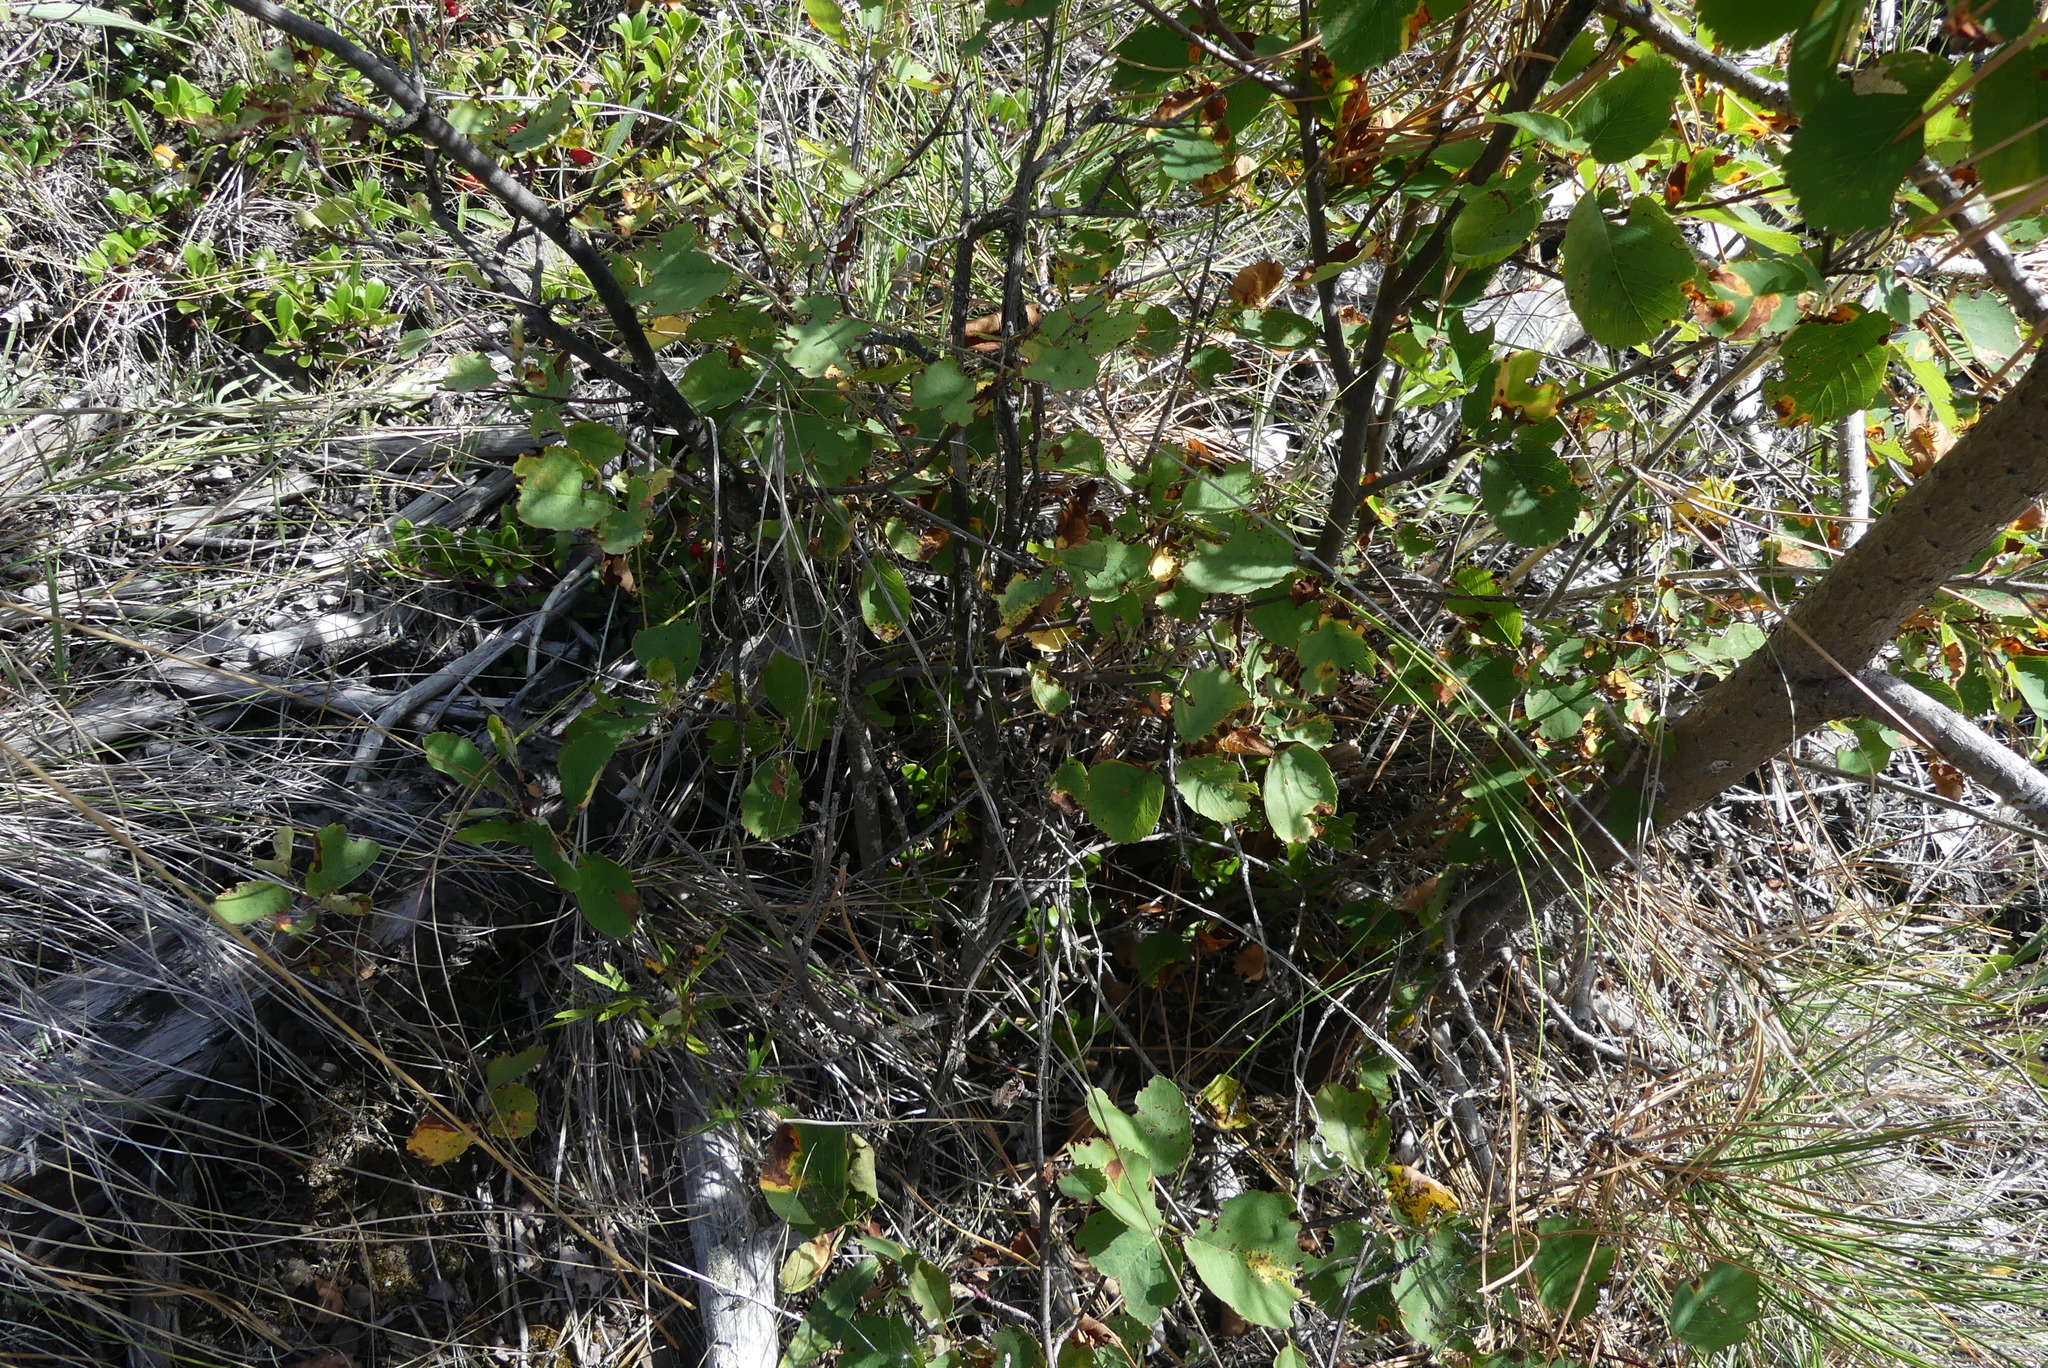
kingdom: Plantae
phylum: Tracheophyta
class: Magnoliopsida
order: Rosales
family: Rosaceae
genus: Amelanchier
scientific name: Amelanchier alnifolia
